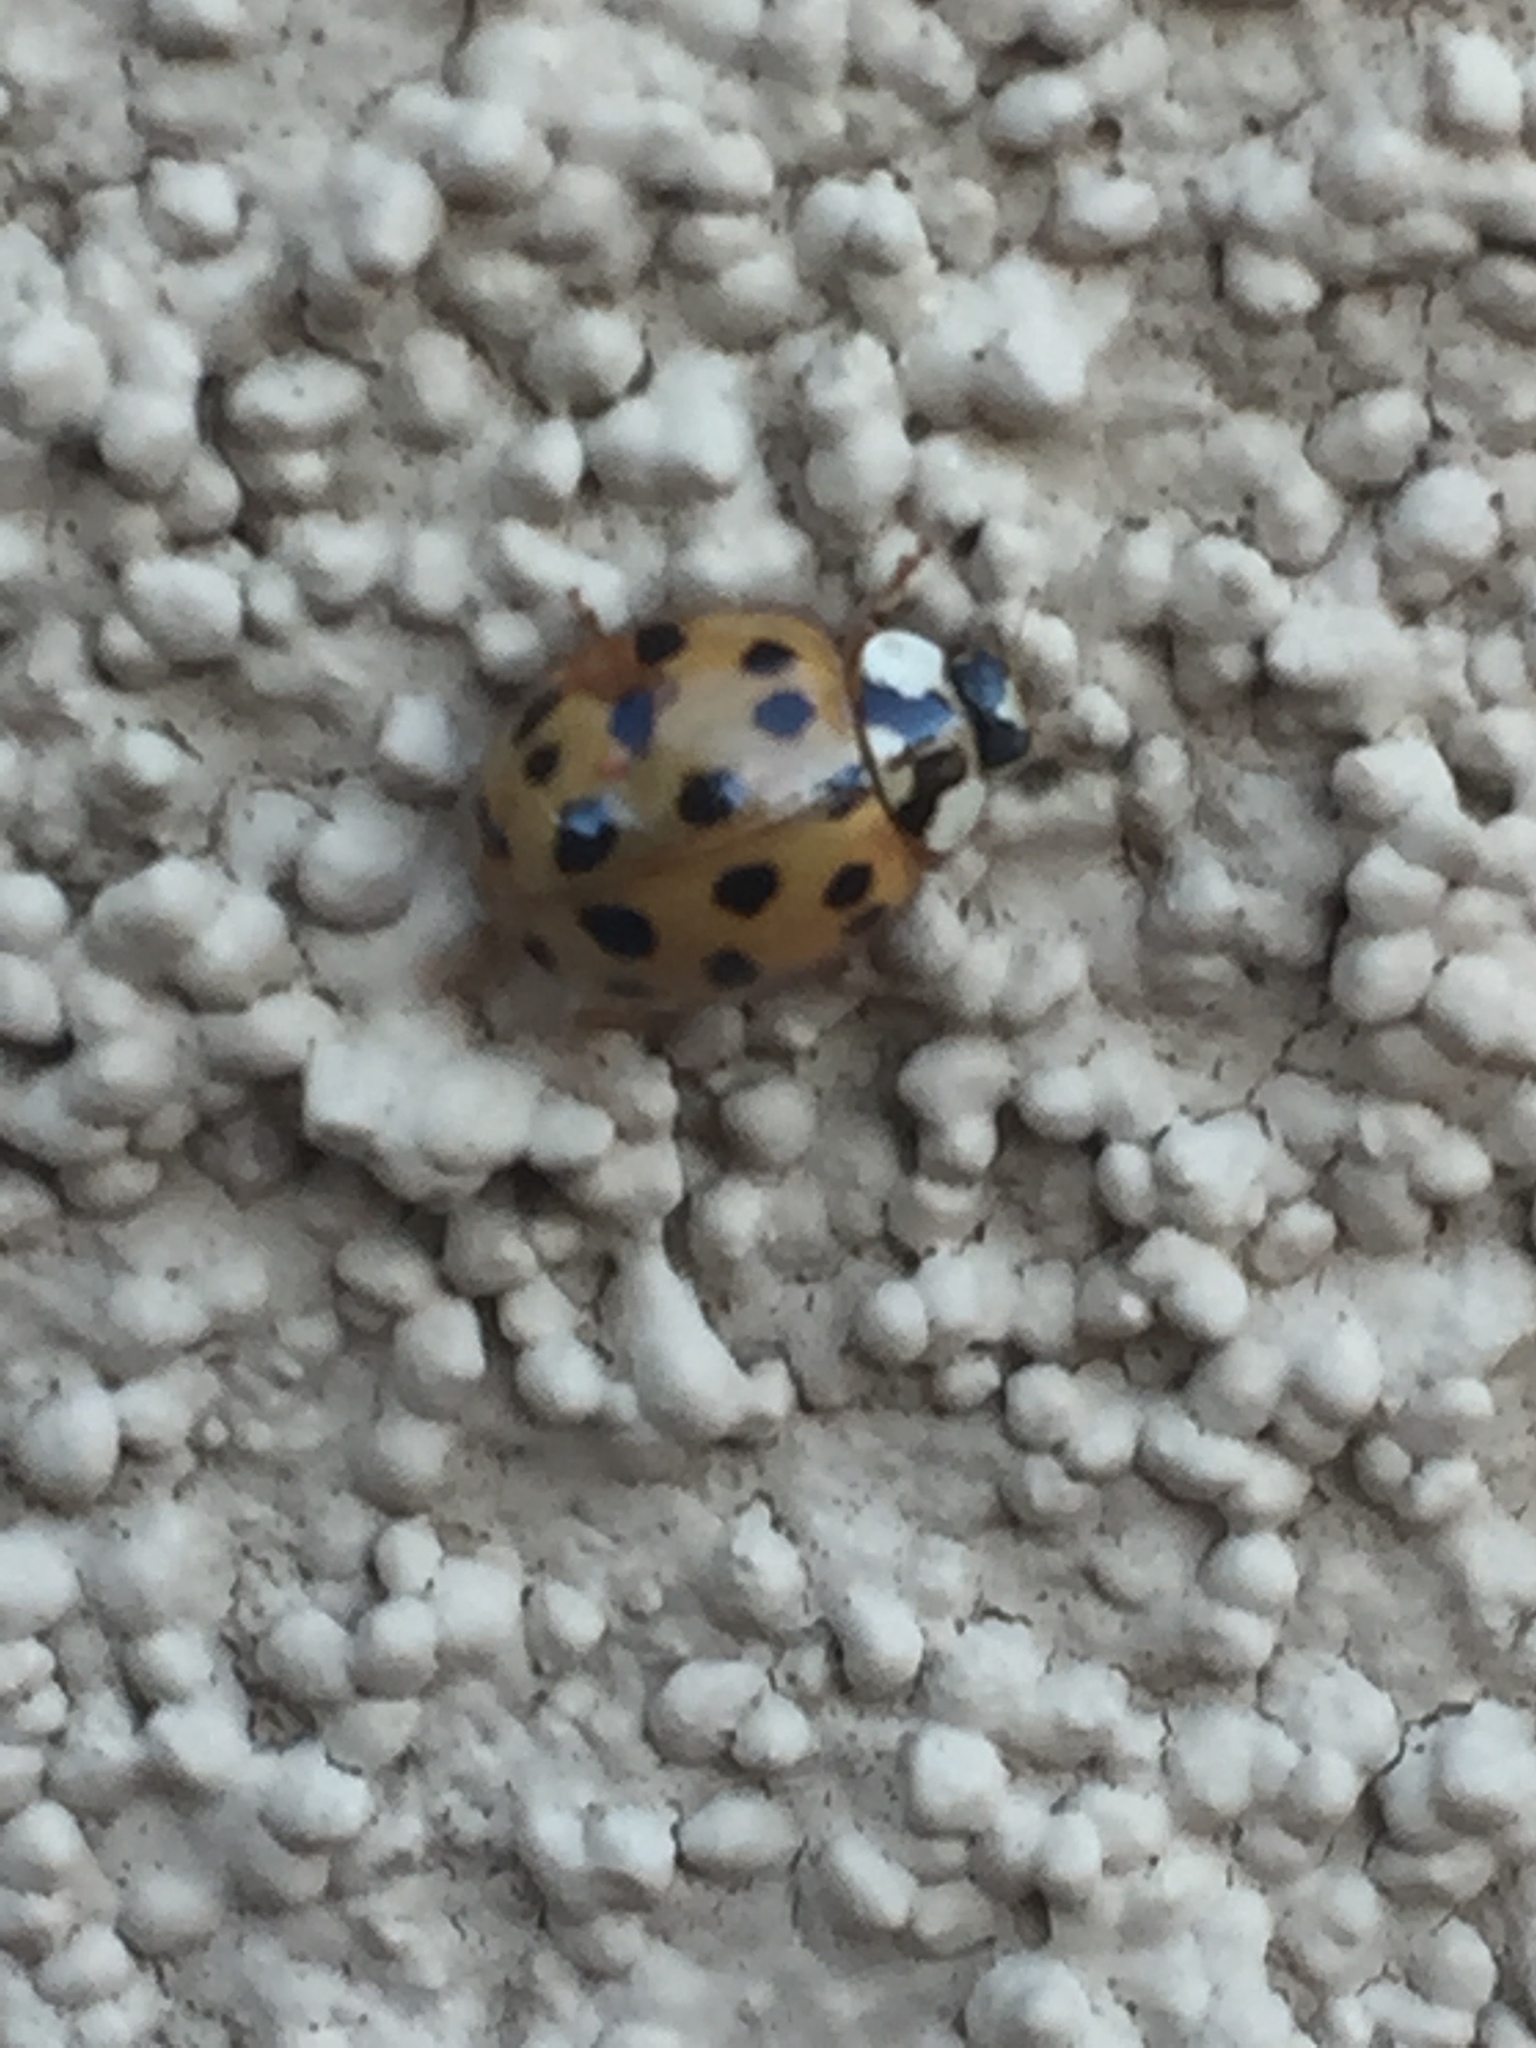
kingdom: Animalia
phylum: Arthropoda
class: Insecta
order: Coleoptera
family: Coccinellidae
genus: Harmonia
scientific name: Harmonia axyridis
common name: Harlequin ladybird
